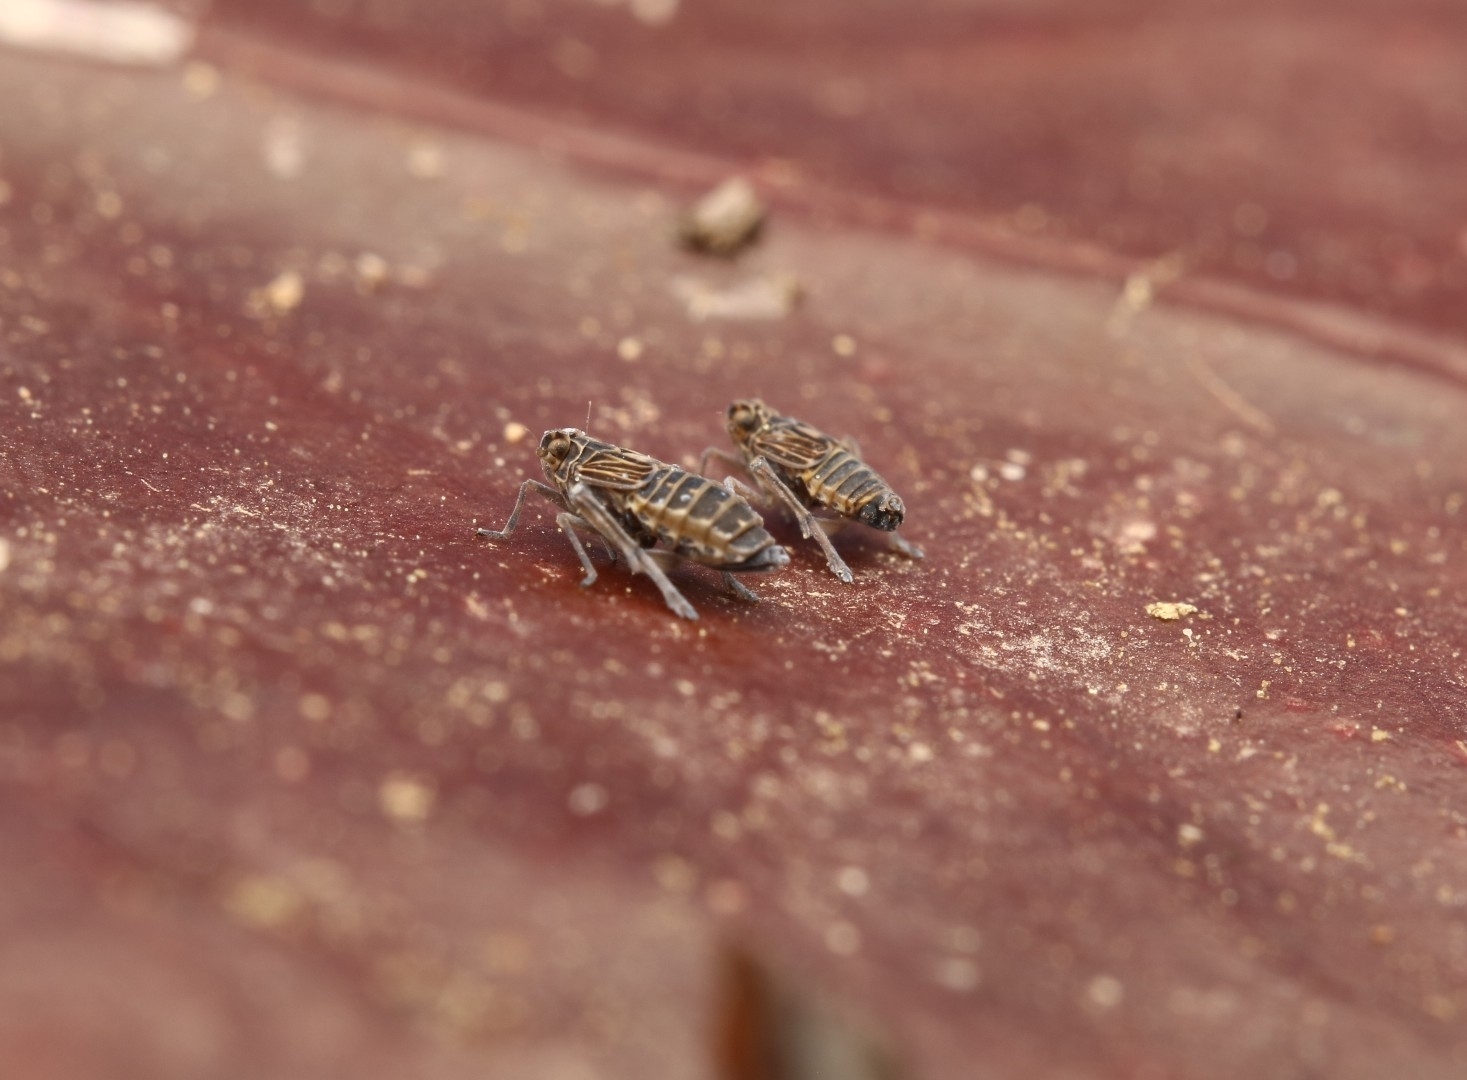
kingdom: Animalia
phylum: Arthropoda
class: Insecta
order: Hemiptera
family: Delphacidae
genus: Megamelus
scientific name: Megamelus davisi
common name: Planthopper
